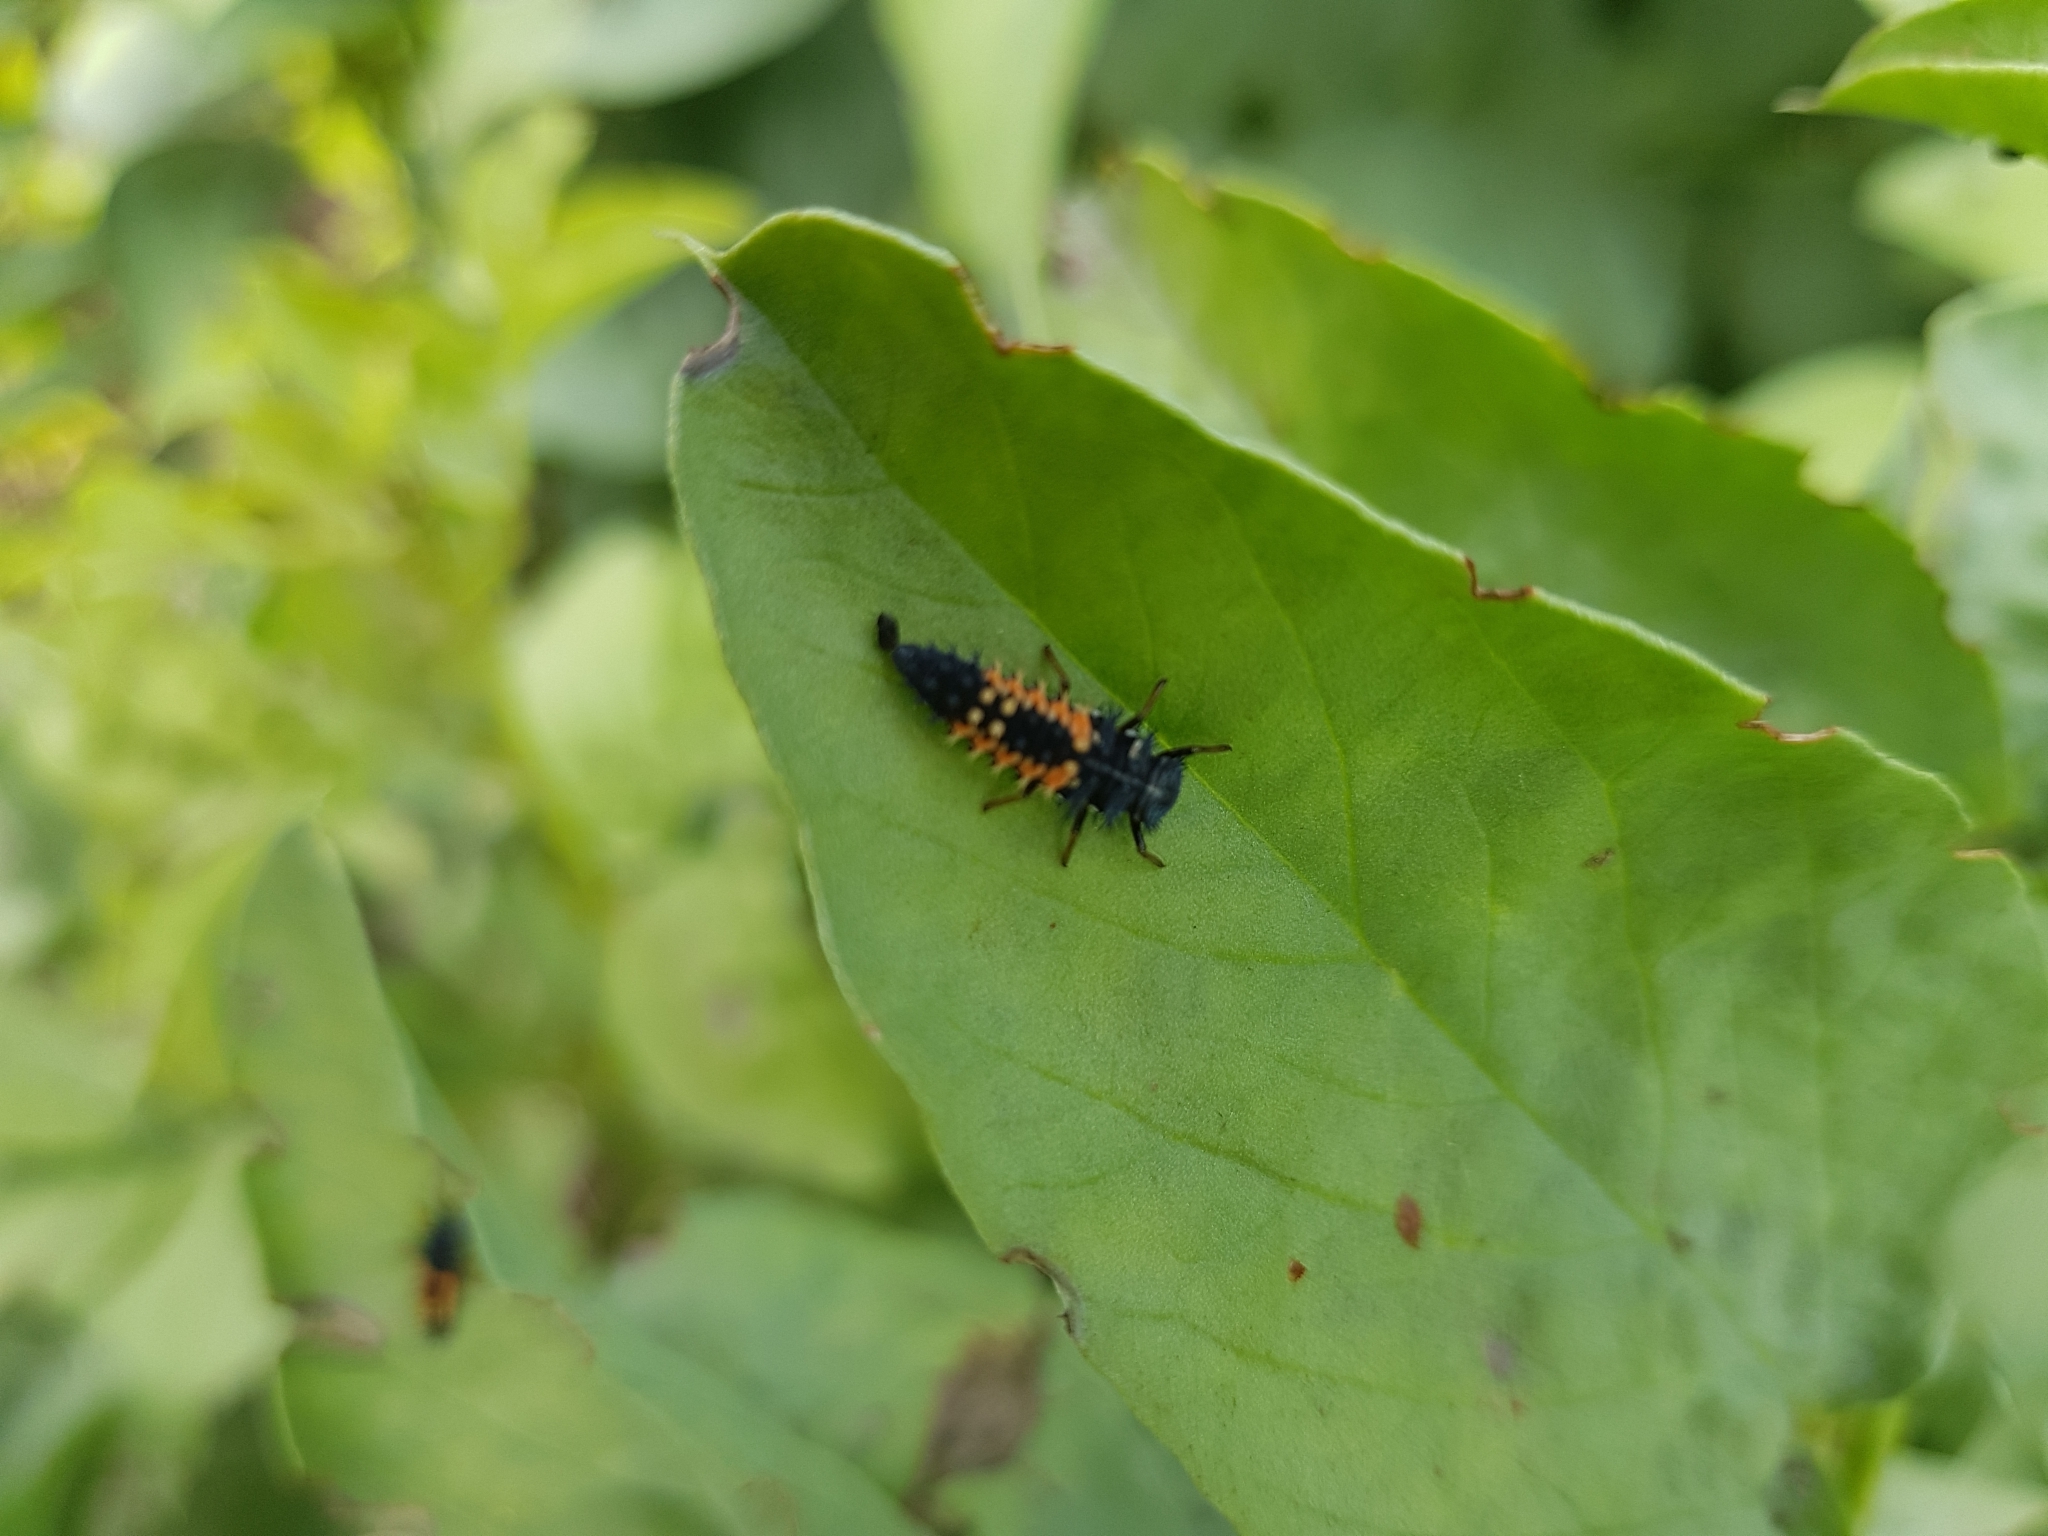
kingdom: Animalia
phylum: Arthropoda
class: Insecta
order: Coleoptera
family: Coccinellidae
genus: Harmonia
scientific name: Harmonia axyridis
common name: Harlequin ladybird
